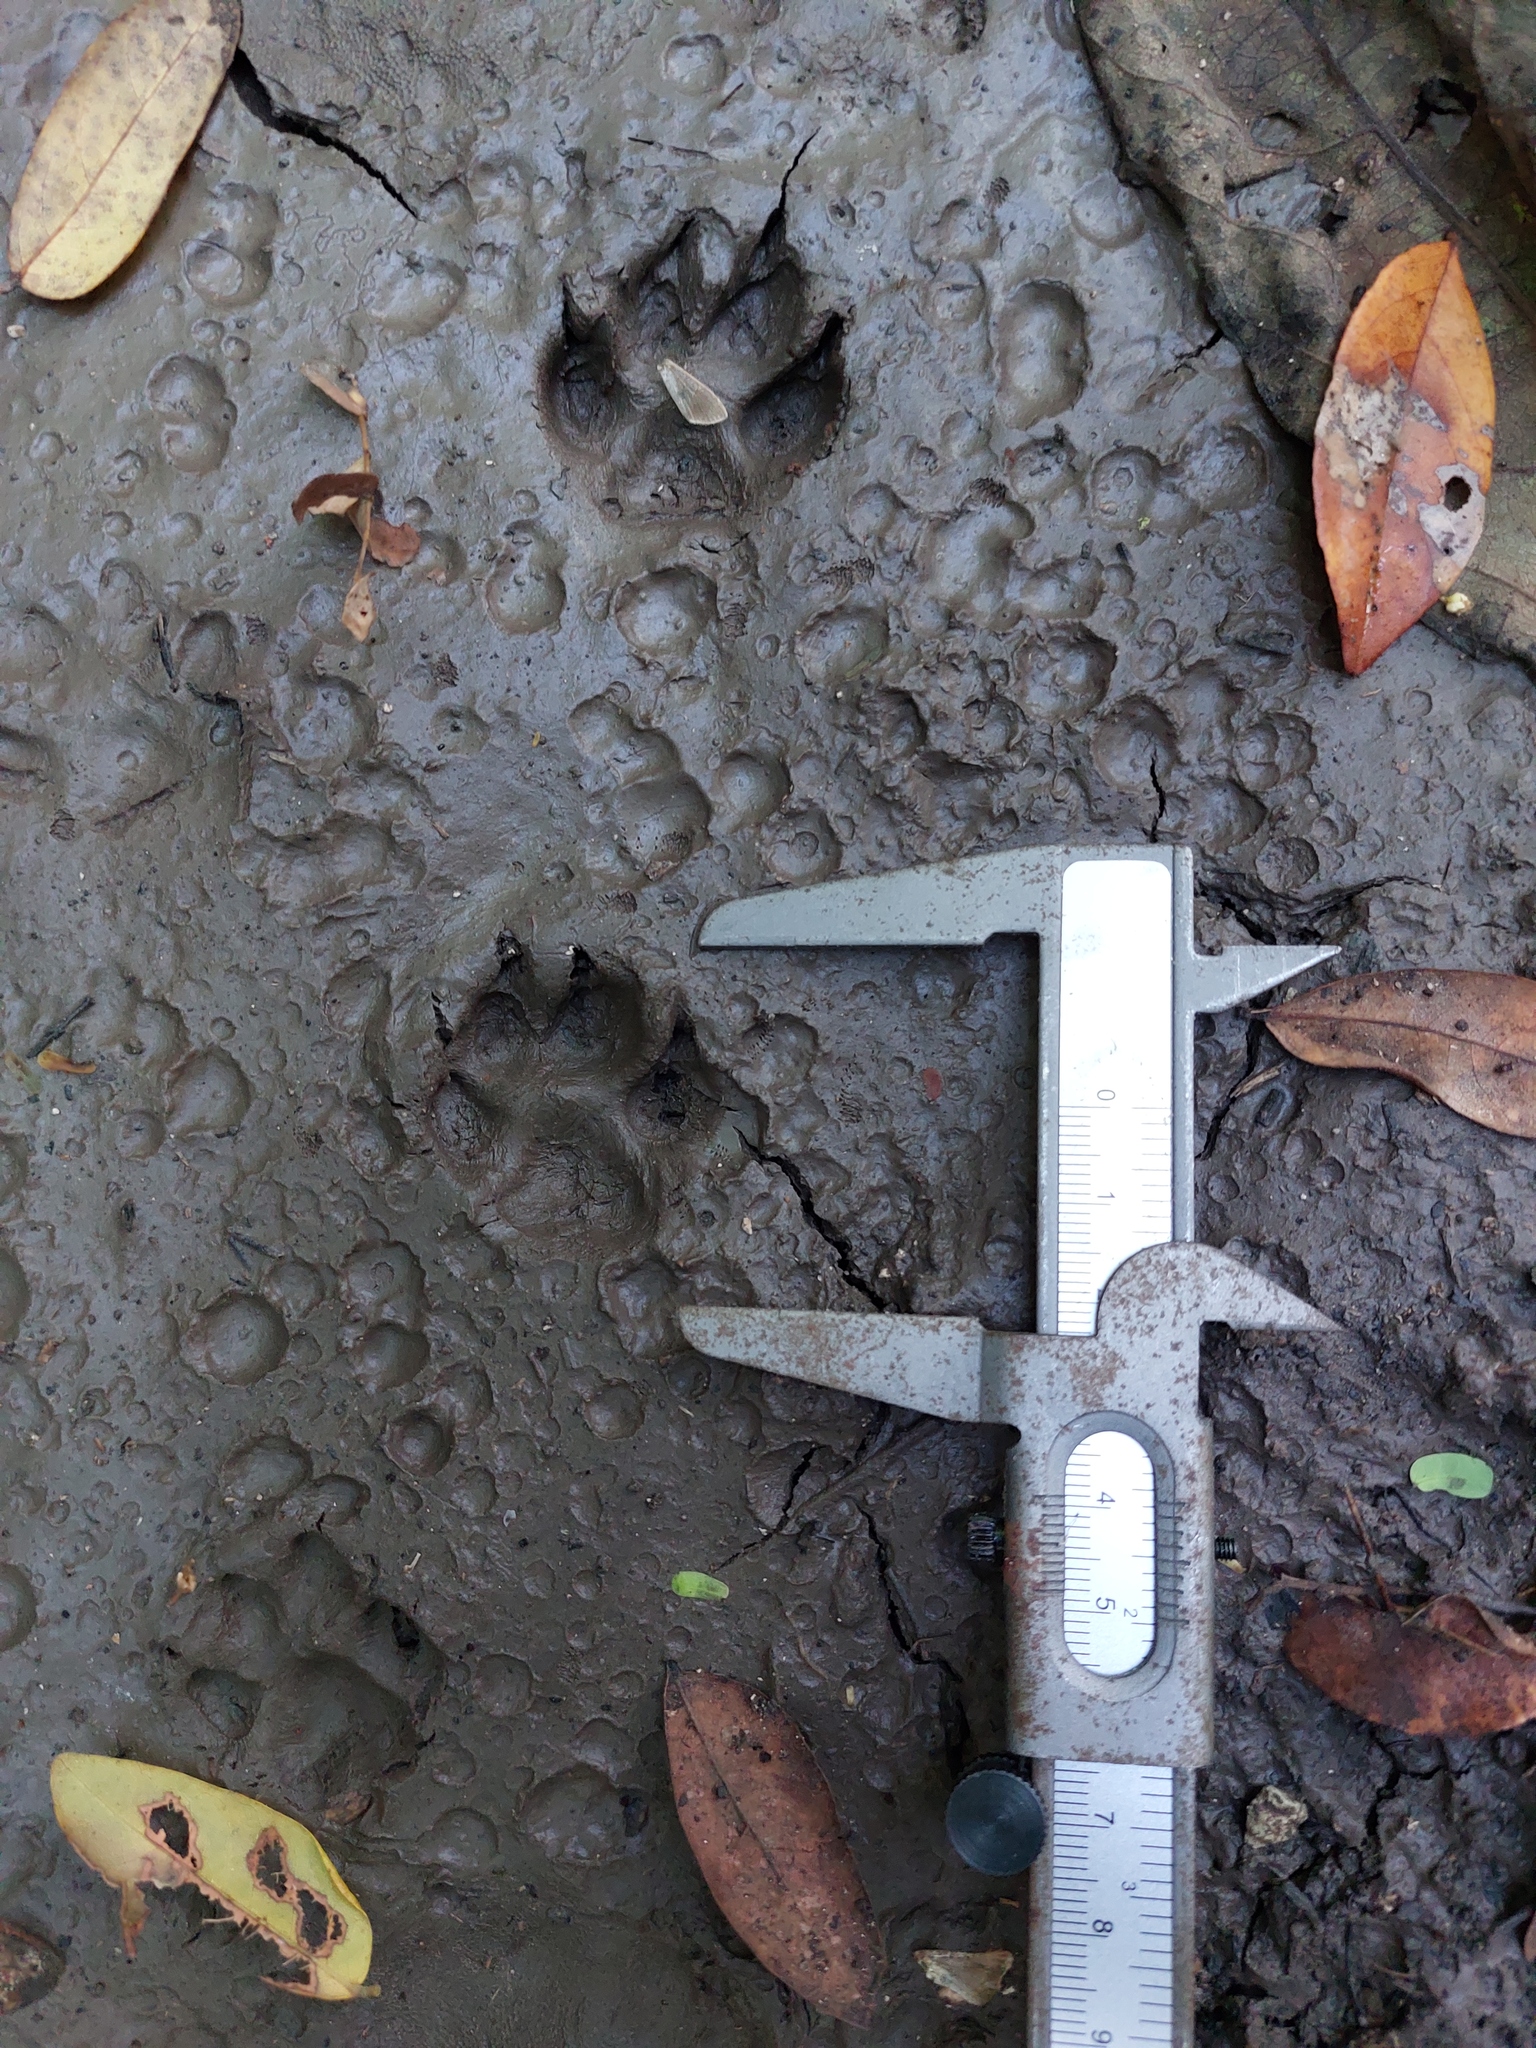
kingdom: Animalia
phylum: Chordata
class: Mammalia
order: Carnivora
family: Canidae
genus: Urocyon
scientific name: Urocyon cinereoargenteus
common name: Gray fox
